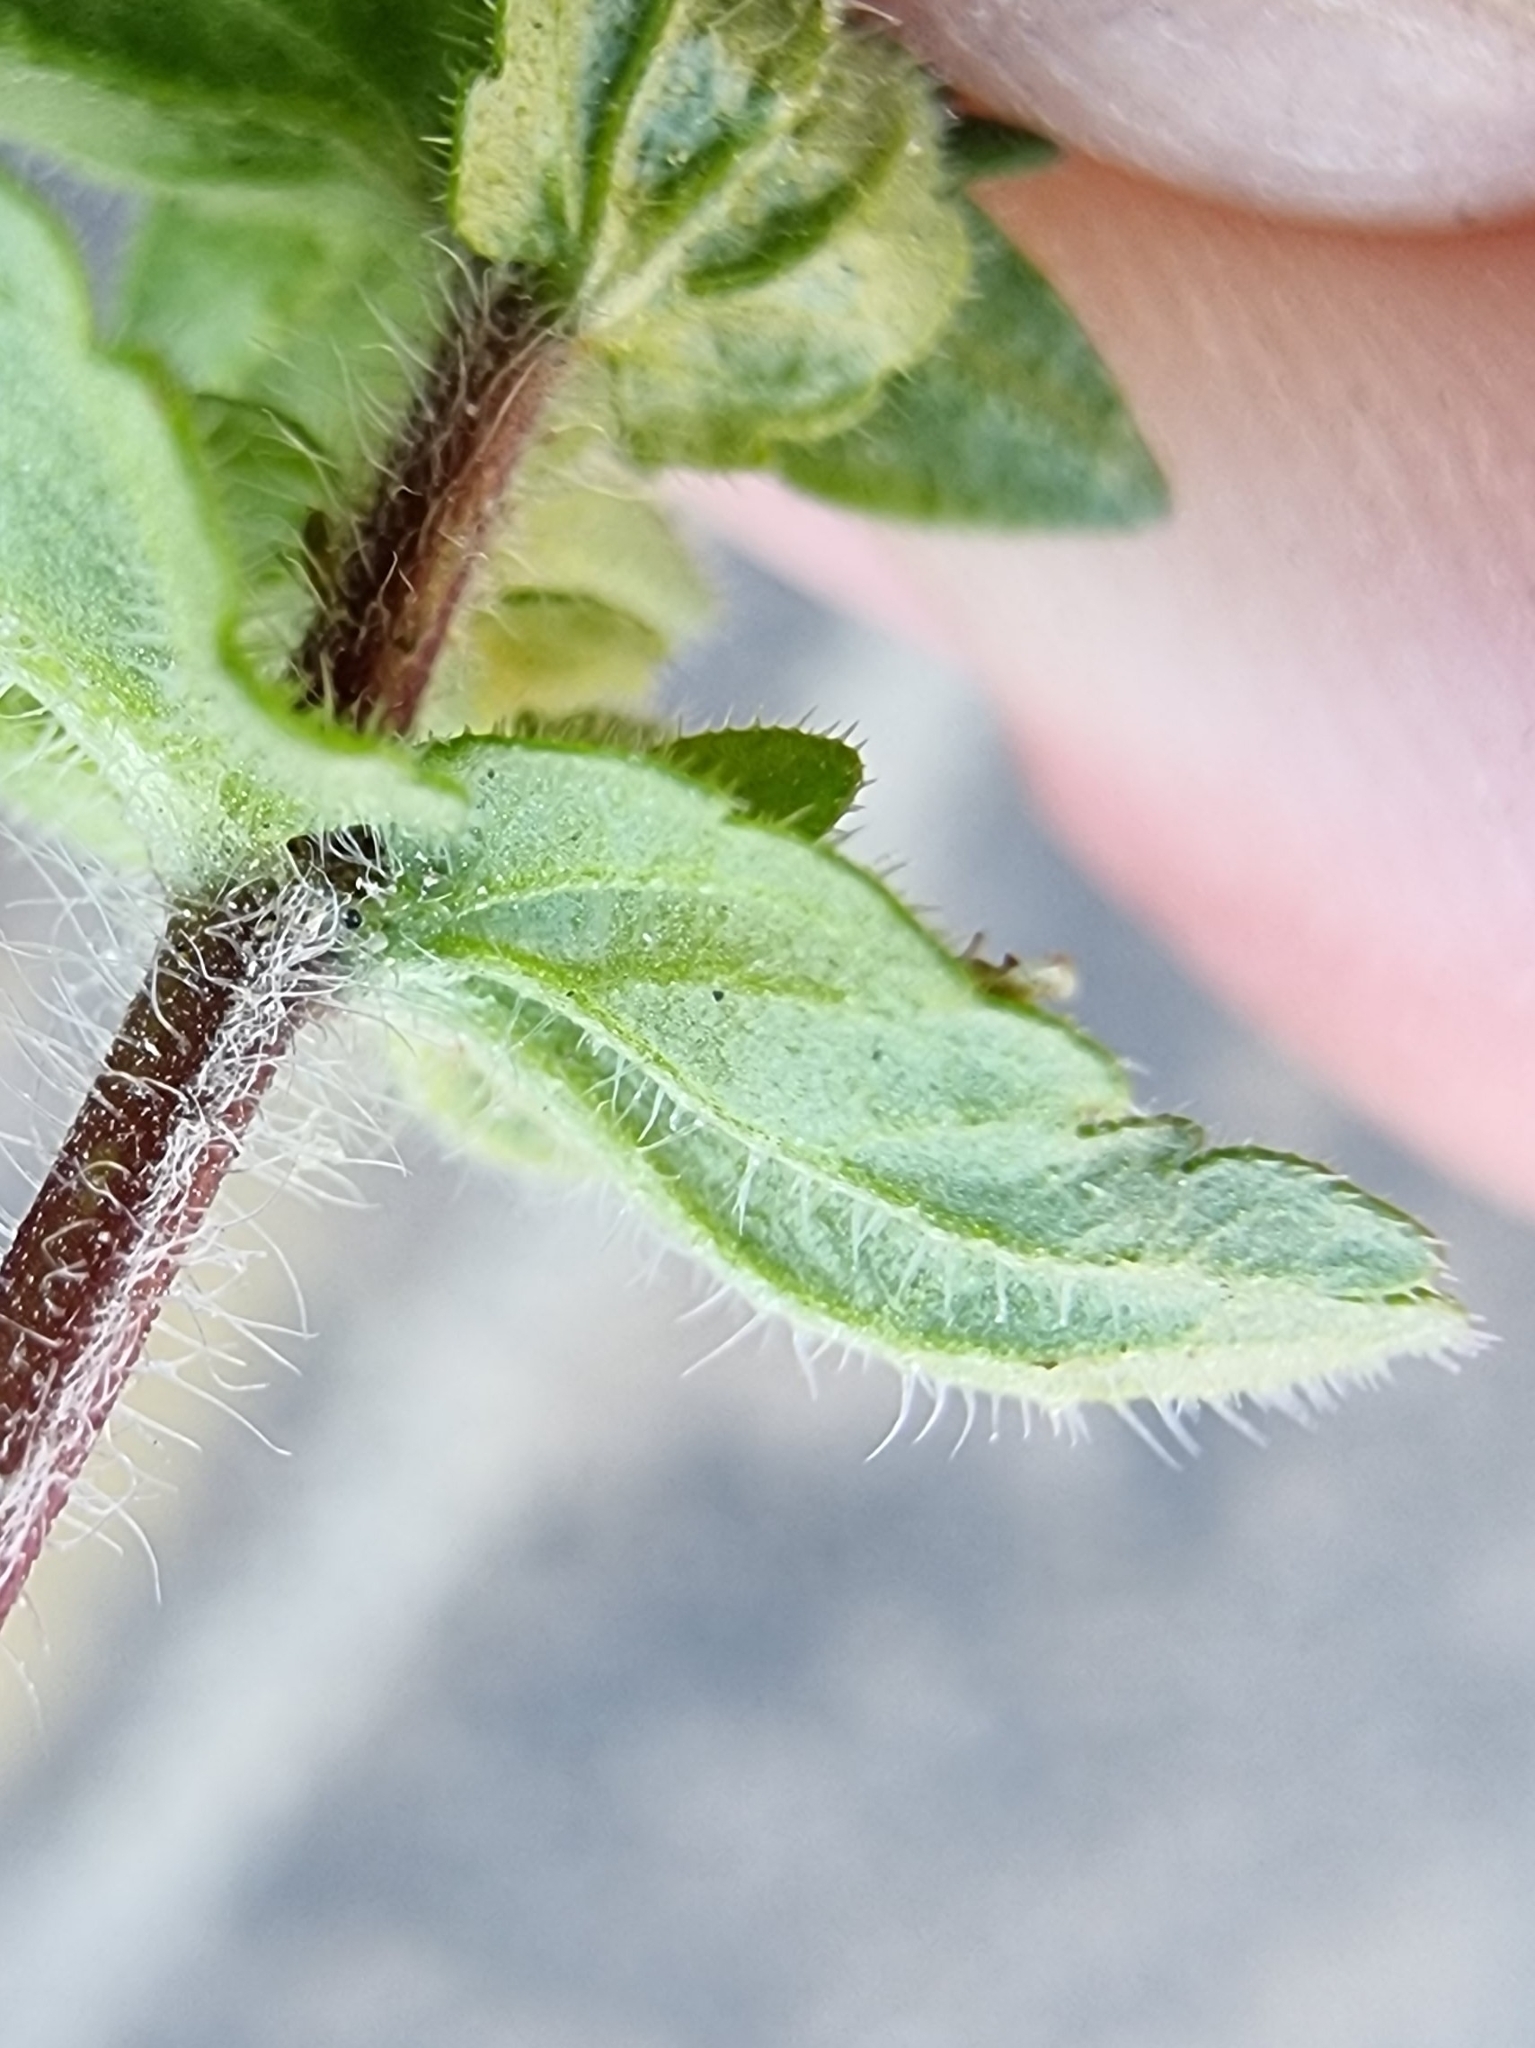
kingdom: Plantae
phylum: Tracheophyta
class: Magnoliopsida
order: Lamiales
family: Plantaginaceae
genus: Veronica
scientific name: Veronica arvensis
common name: Corn speedwell
